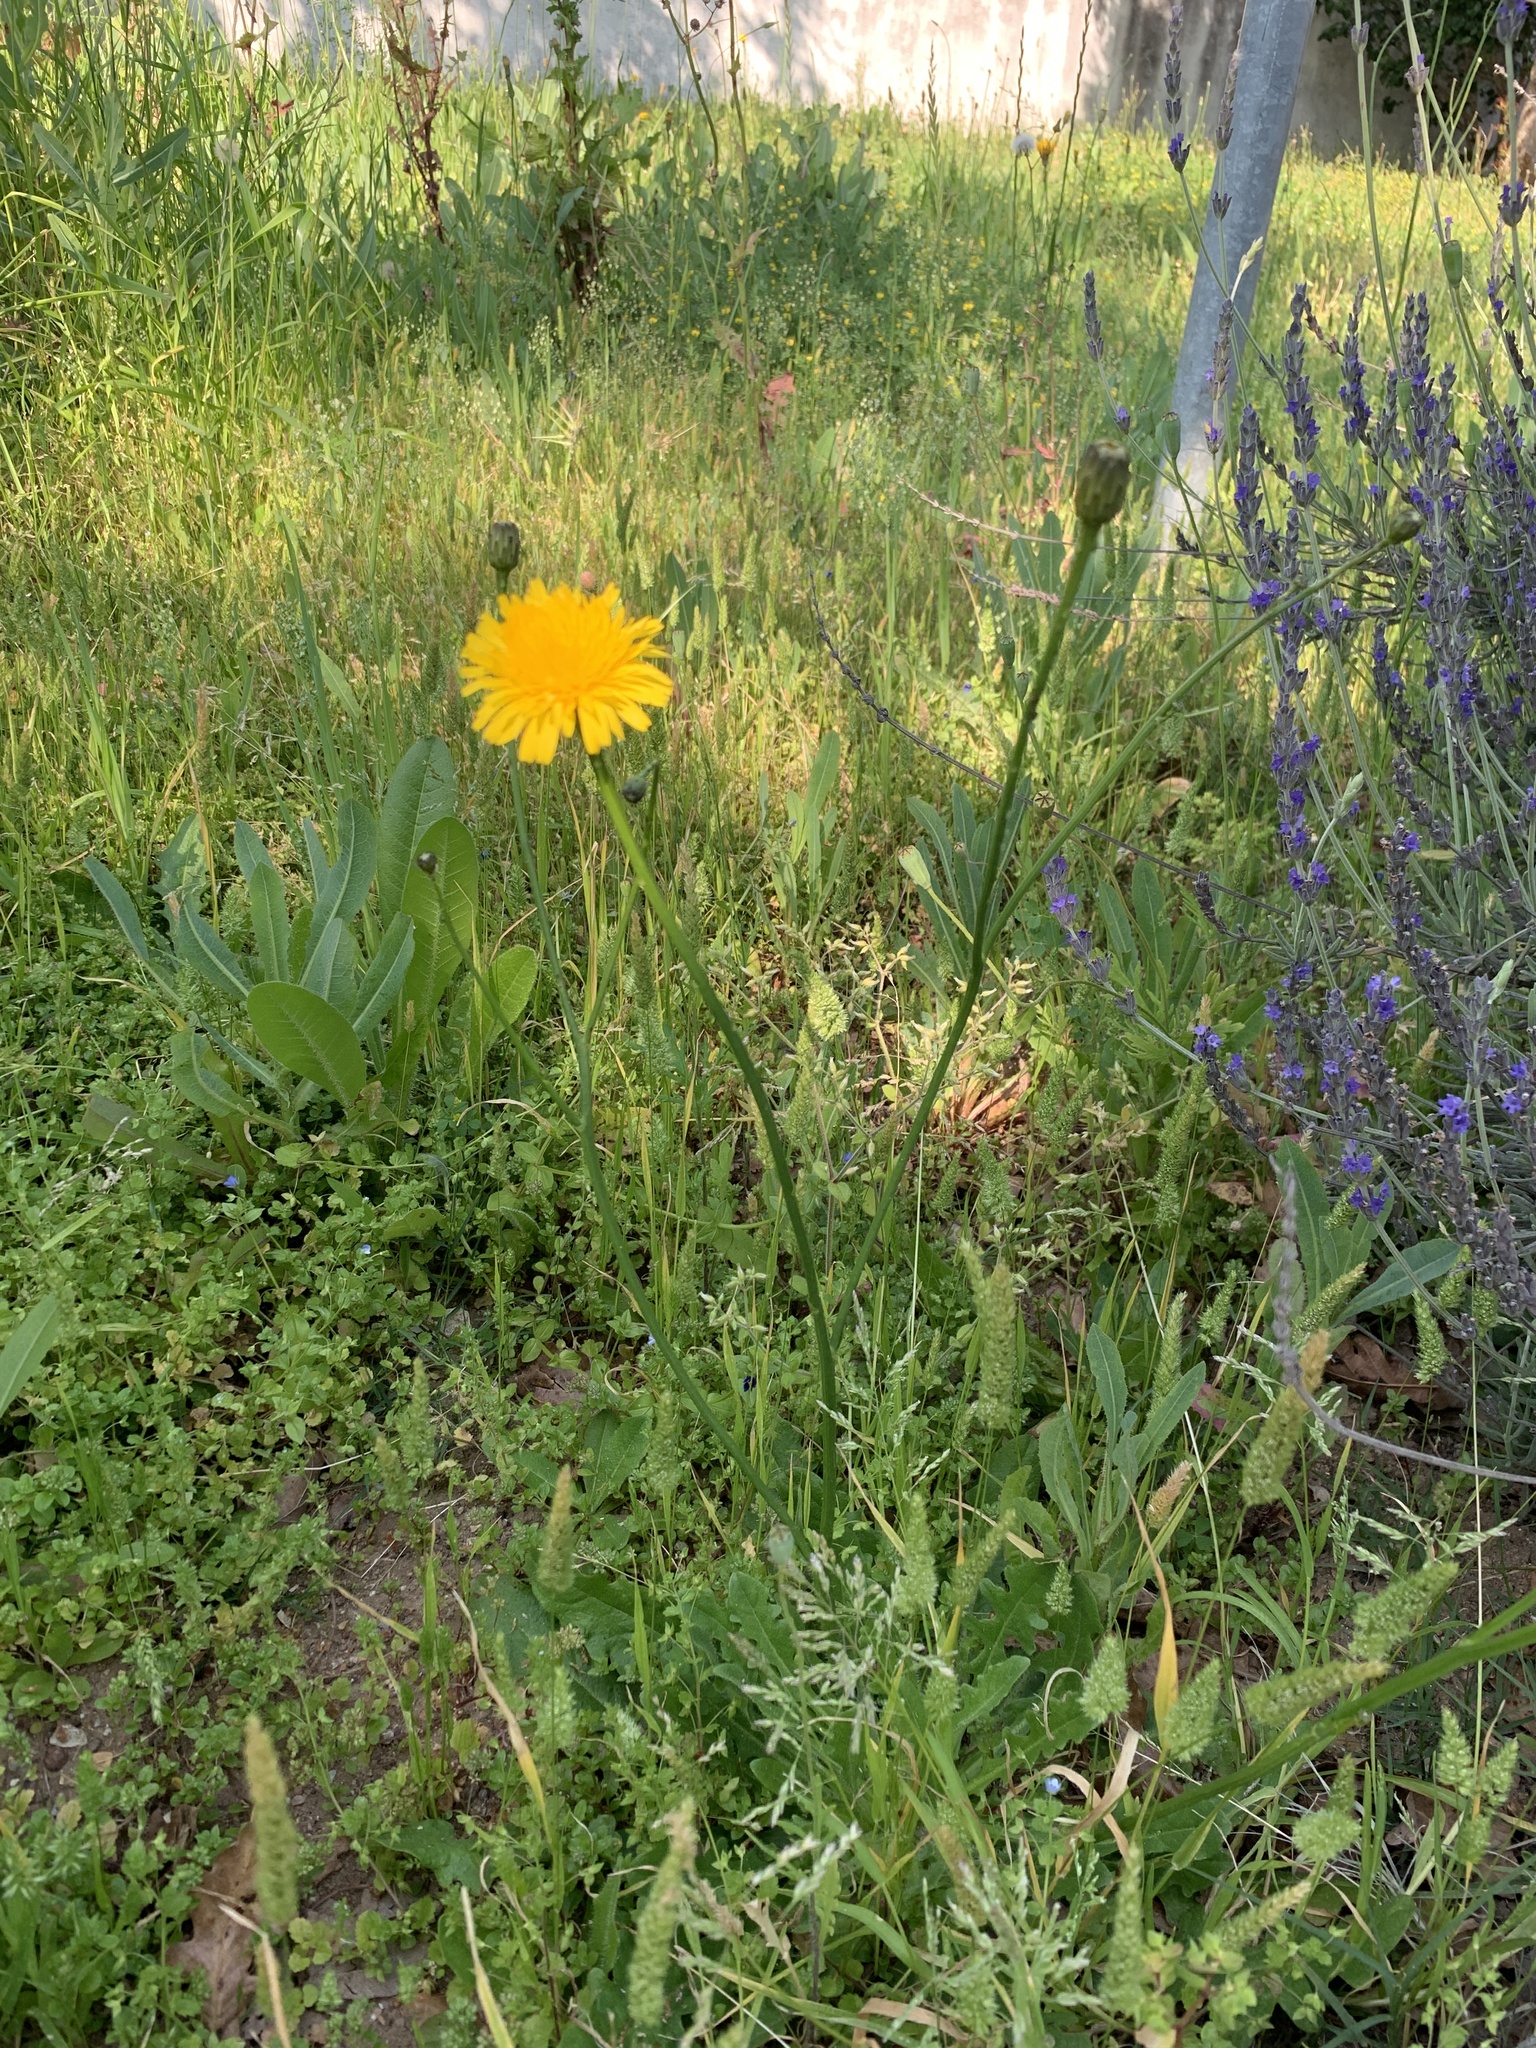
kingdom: Plantae
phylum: Tracheophyta
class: Magnoliopsida
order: Asterales
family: Asteraceae
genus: Hypochaeris
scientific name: Hypochaeris radicata
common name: Flatweed
